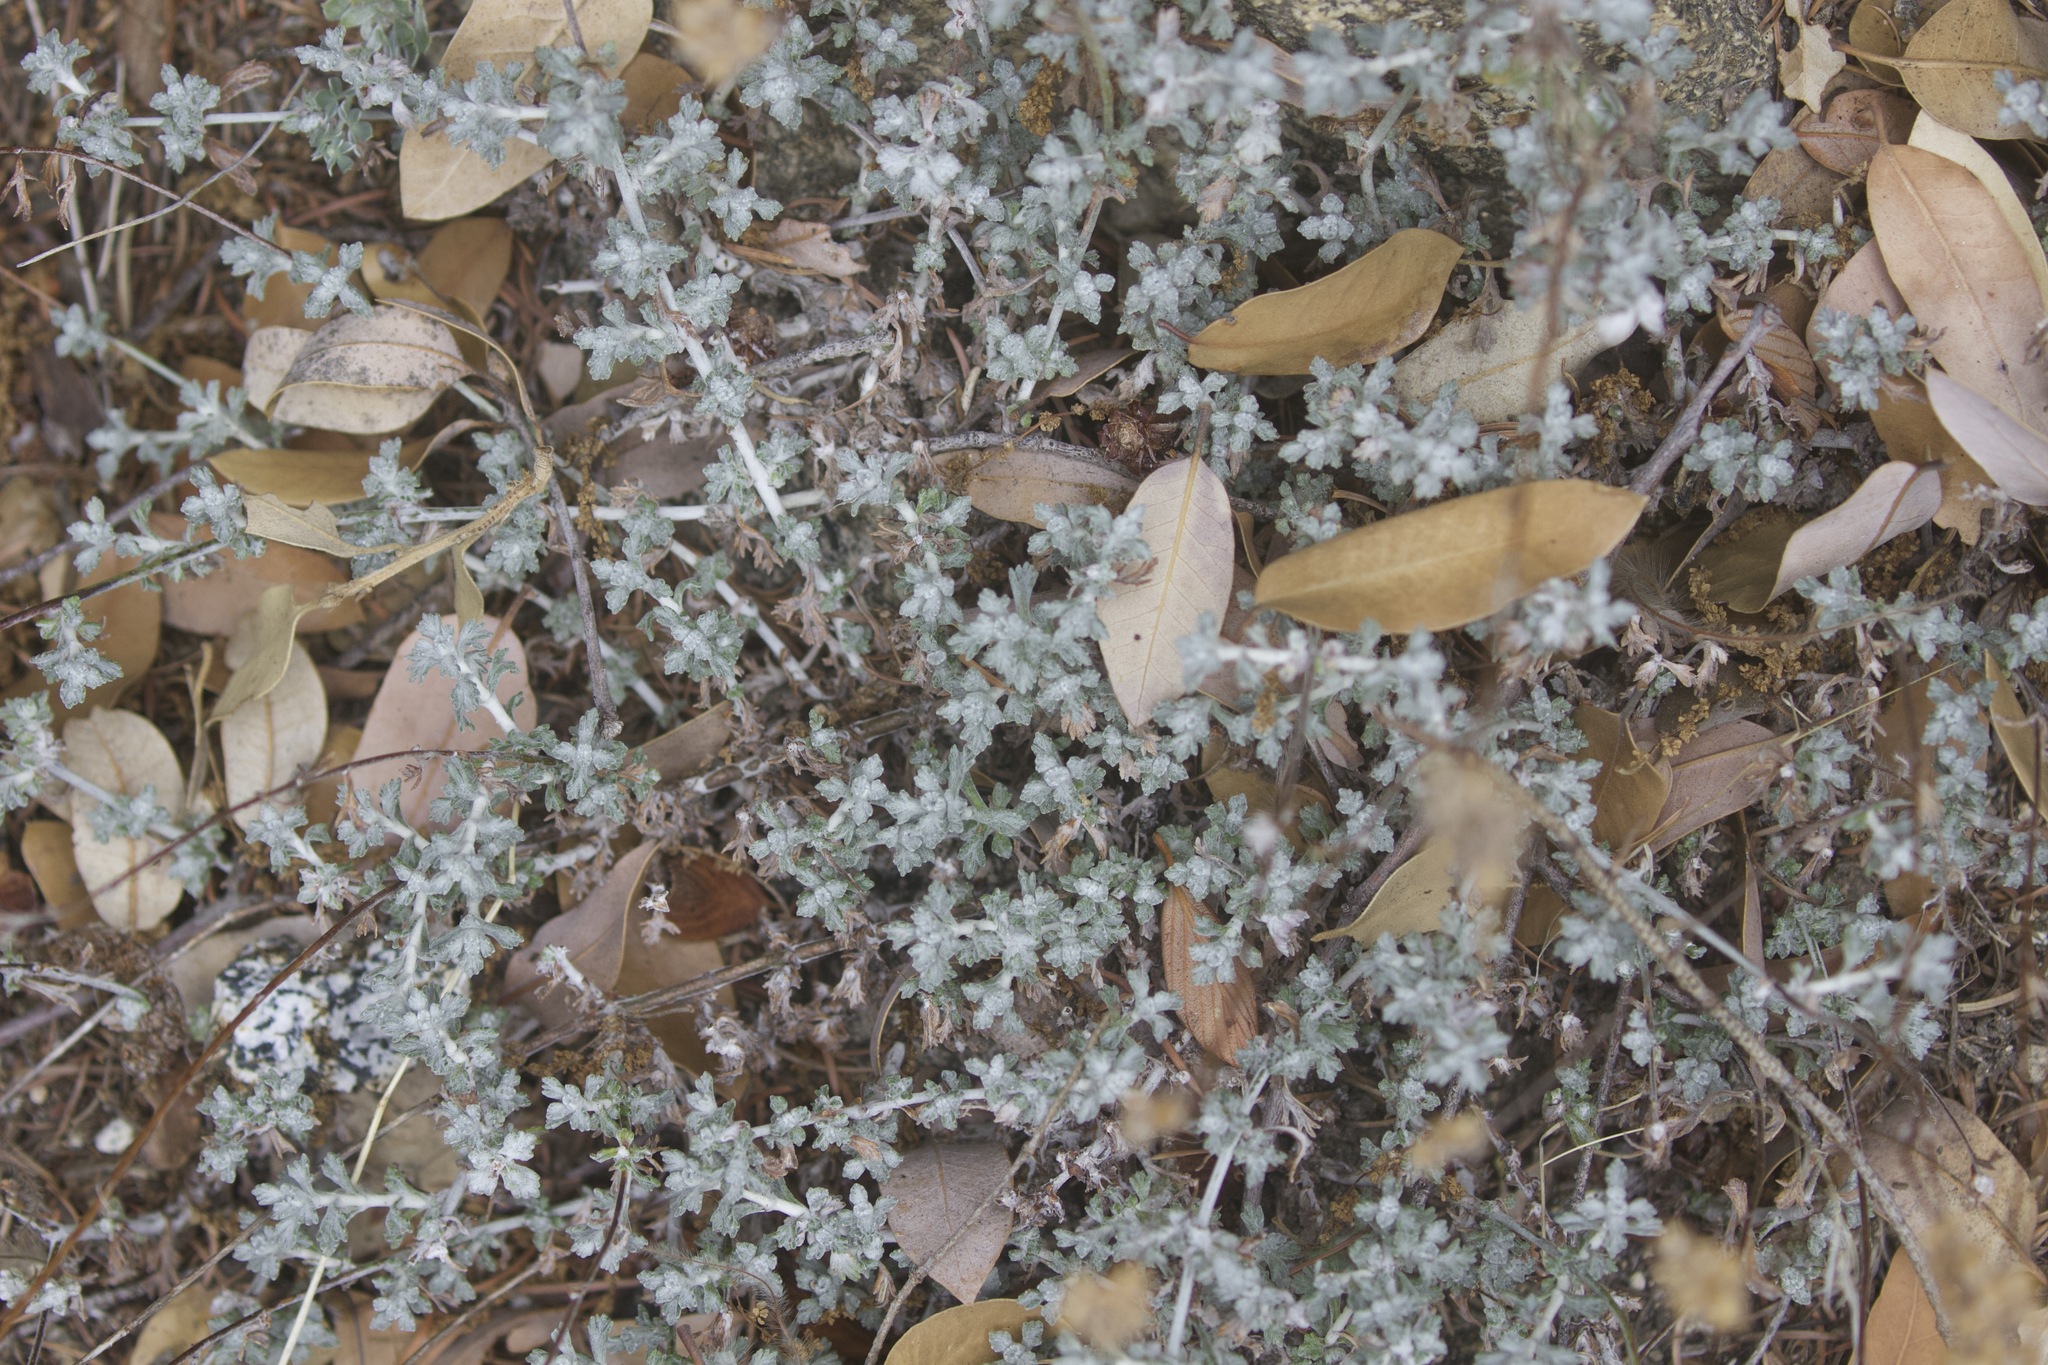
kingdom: Plantae
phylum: Tracheophyta
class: Magnoliopsida
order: Asterales
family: Asteraceae
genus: Eriophyllum
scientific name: Eriophyllum confertiflorum
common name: Golden-yarrow
